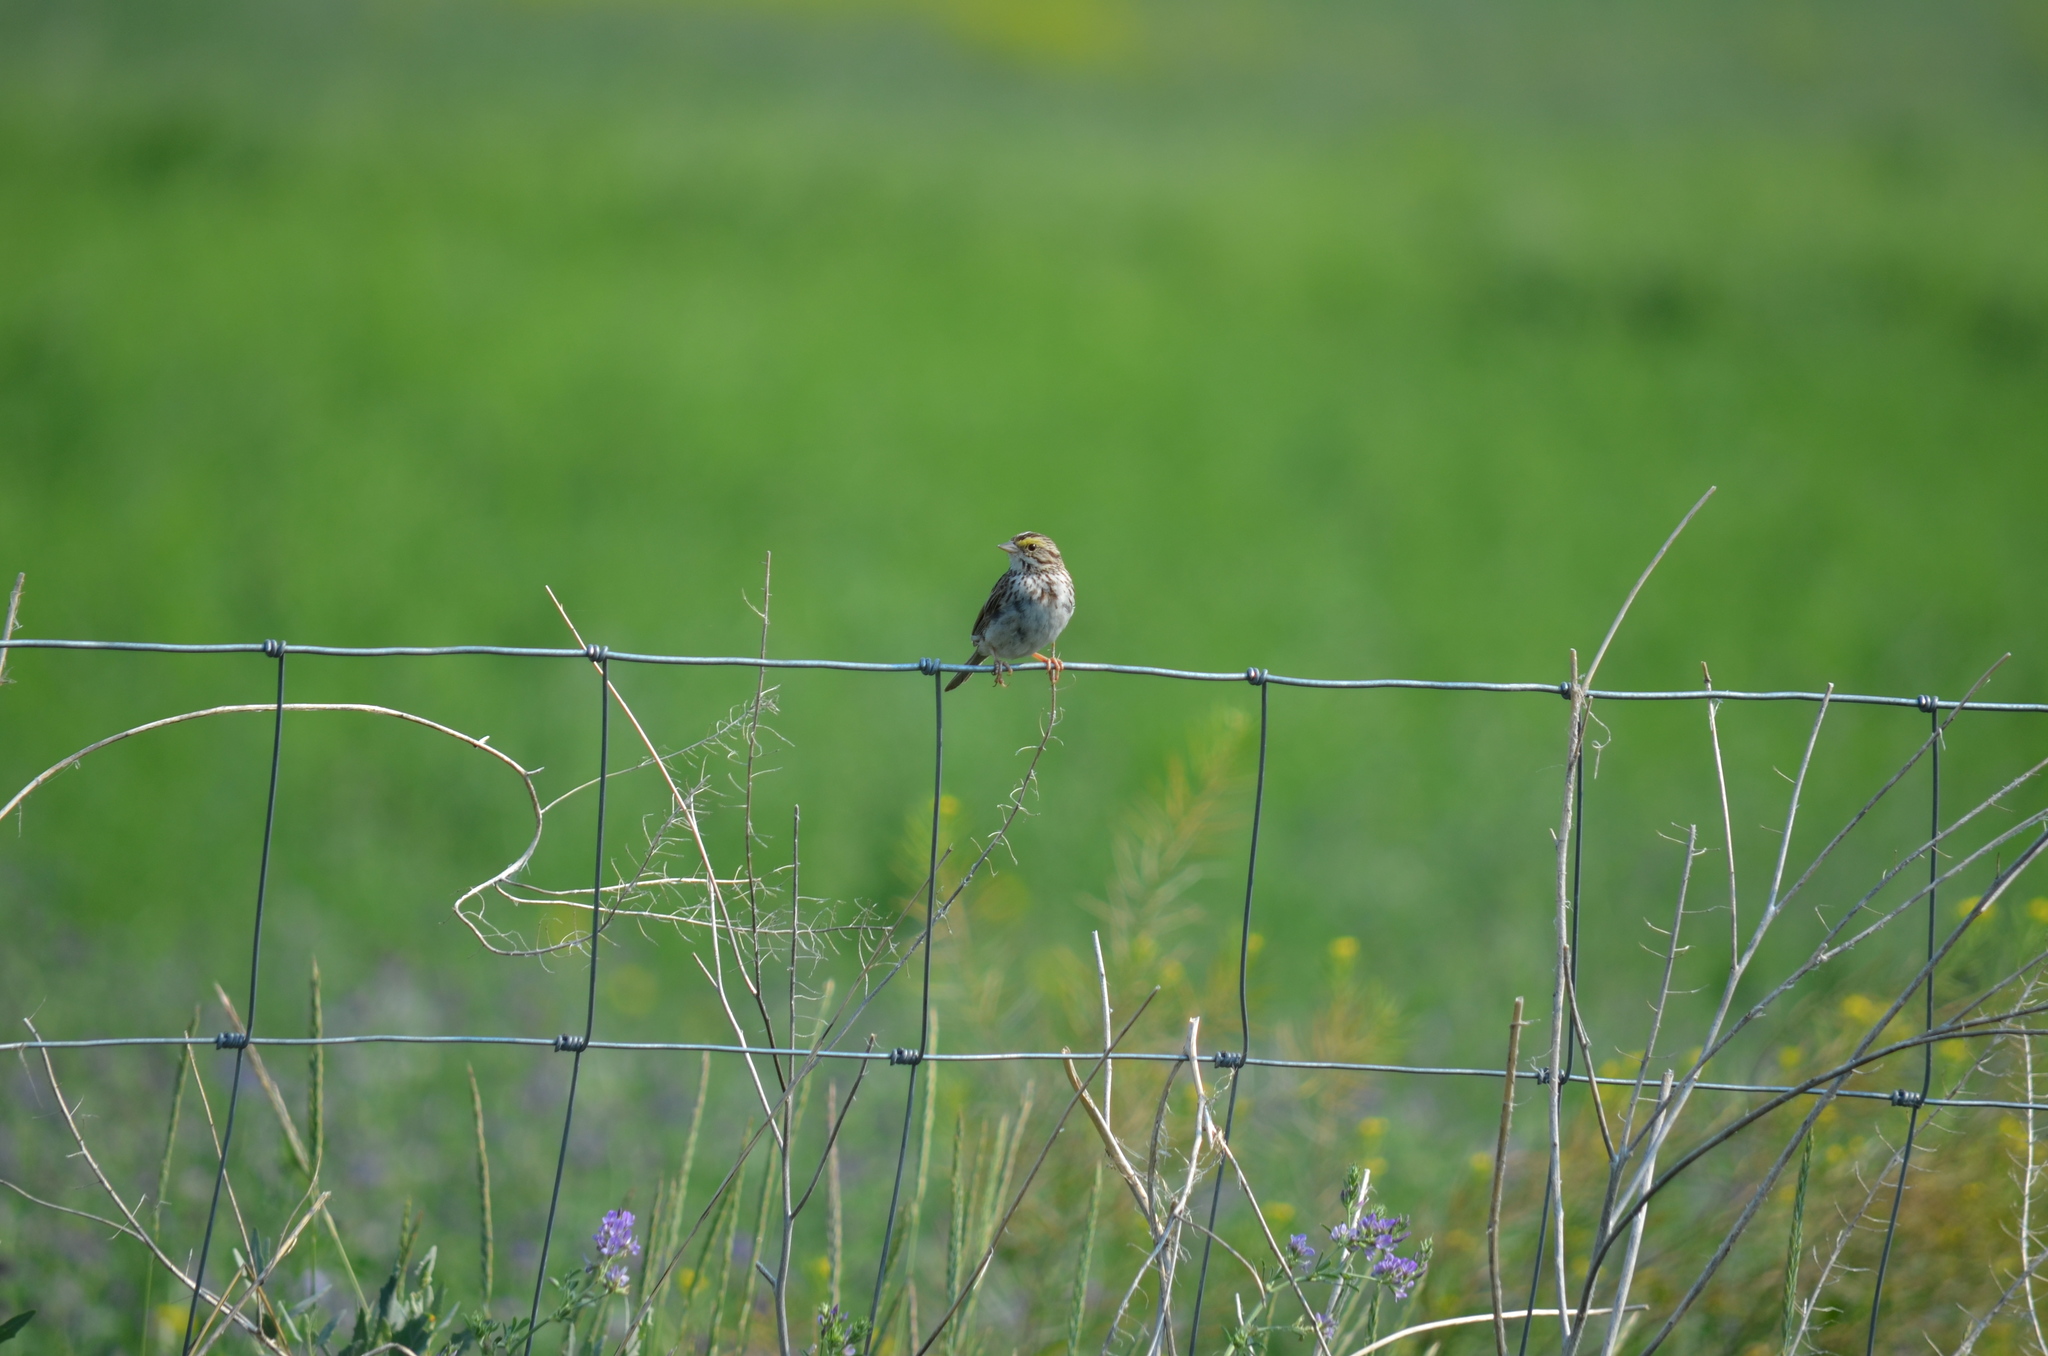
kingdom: Animalia
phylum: Chordata
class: Aves
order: Passeriformes
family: Passerellidae
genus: Passerculus
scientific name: Passerculus sandwichensis
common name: Savannah sparrow
